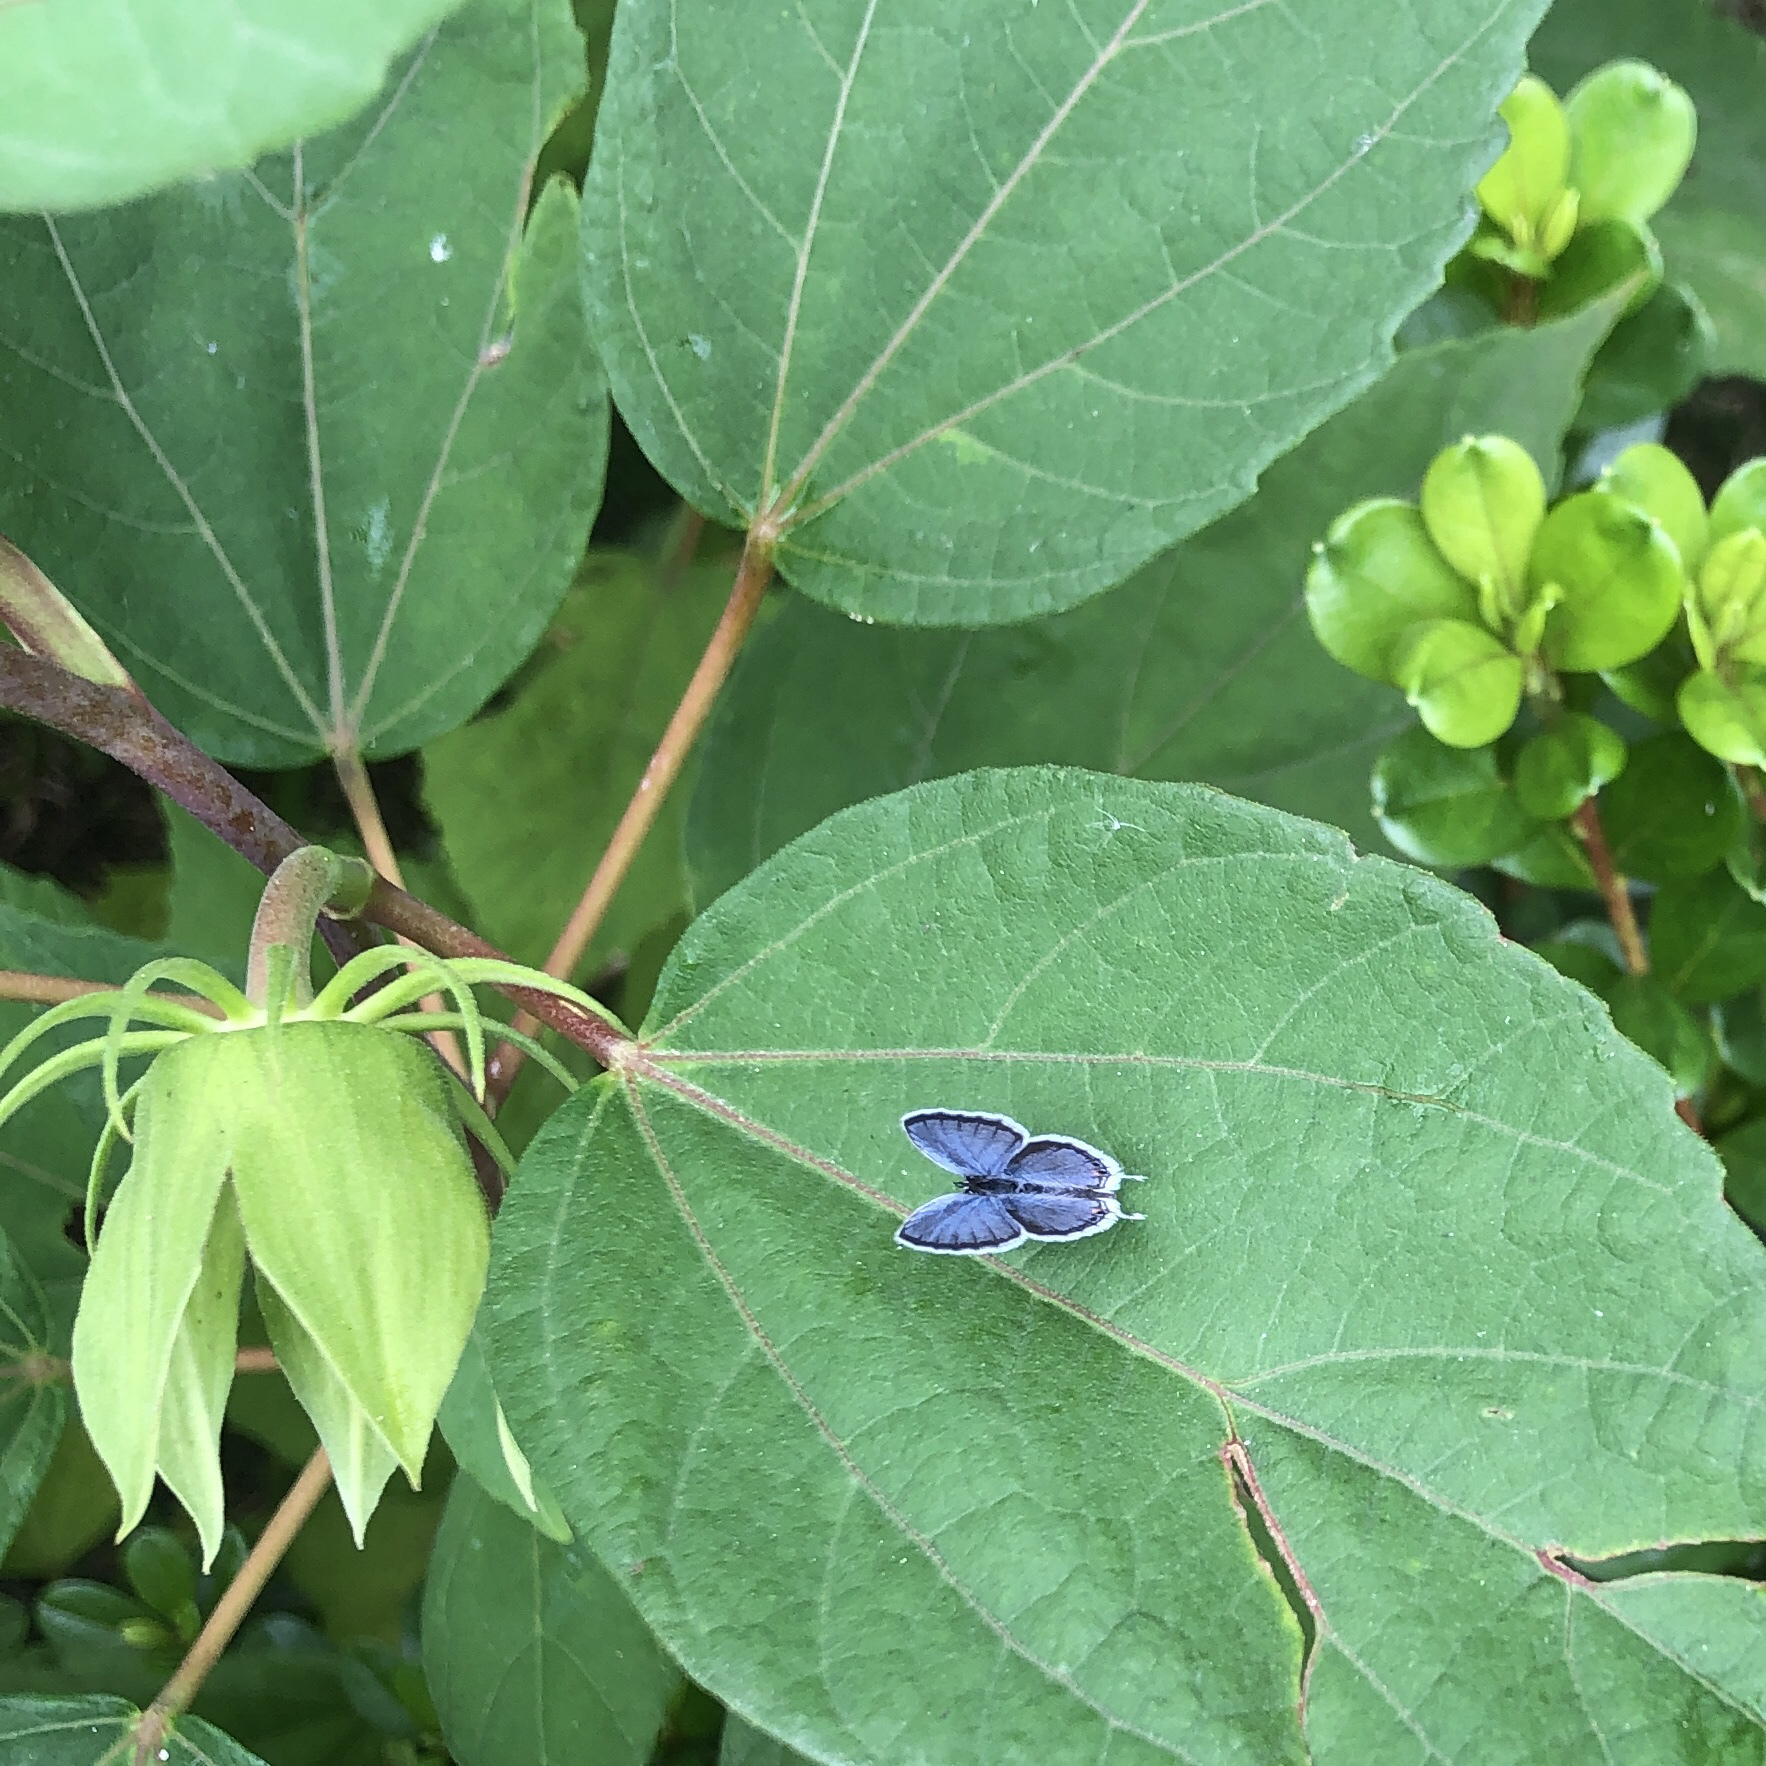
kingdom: Animalia
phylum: Arthropoda
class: Insecta
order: Lepidoptera
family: Lycaenidae
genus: Elkalyce
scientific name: Elkalyce comyntas
